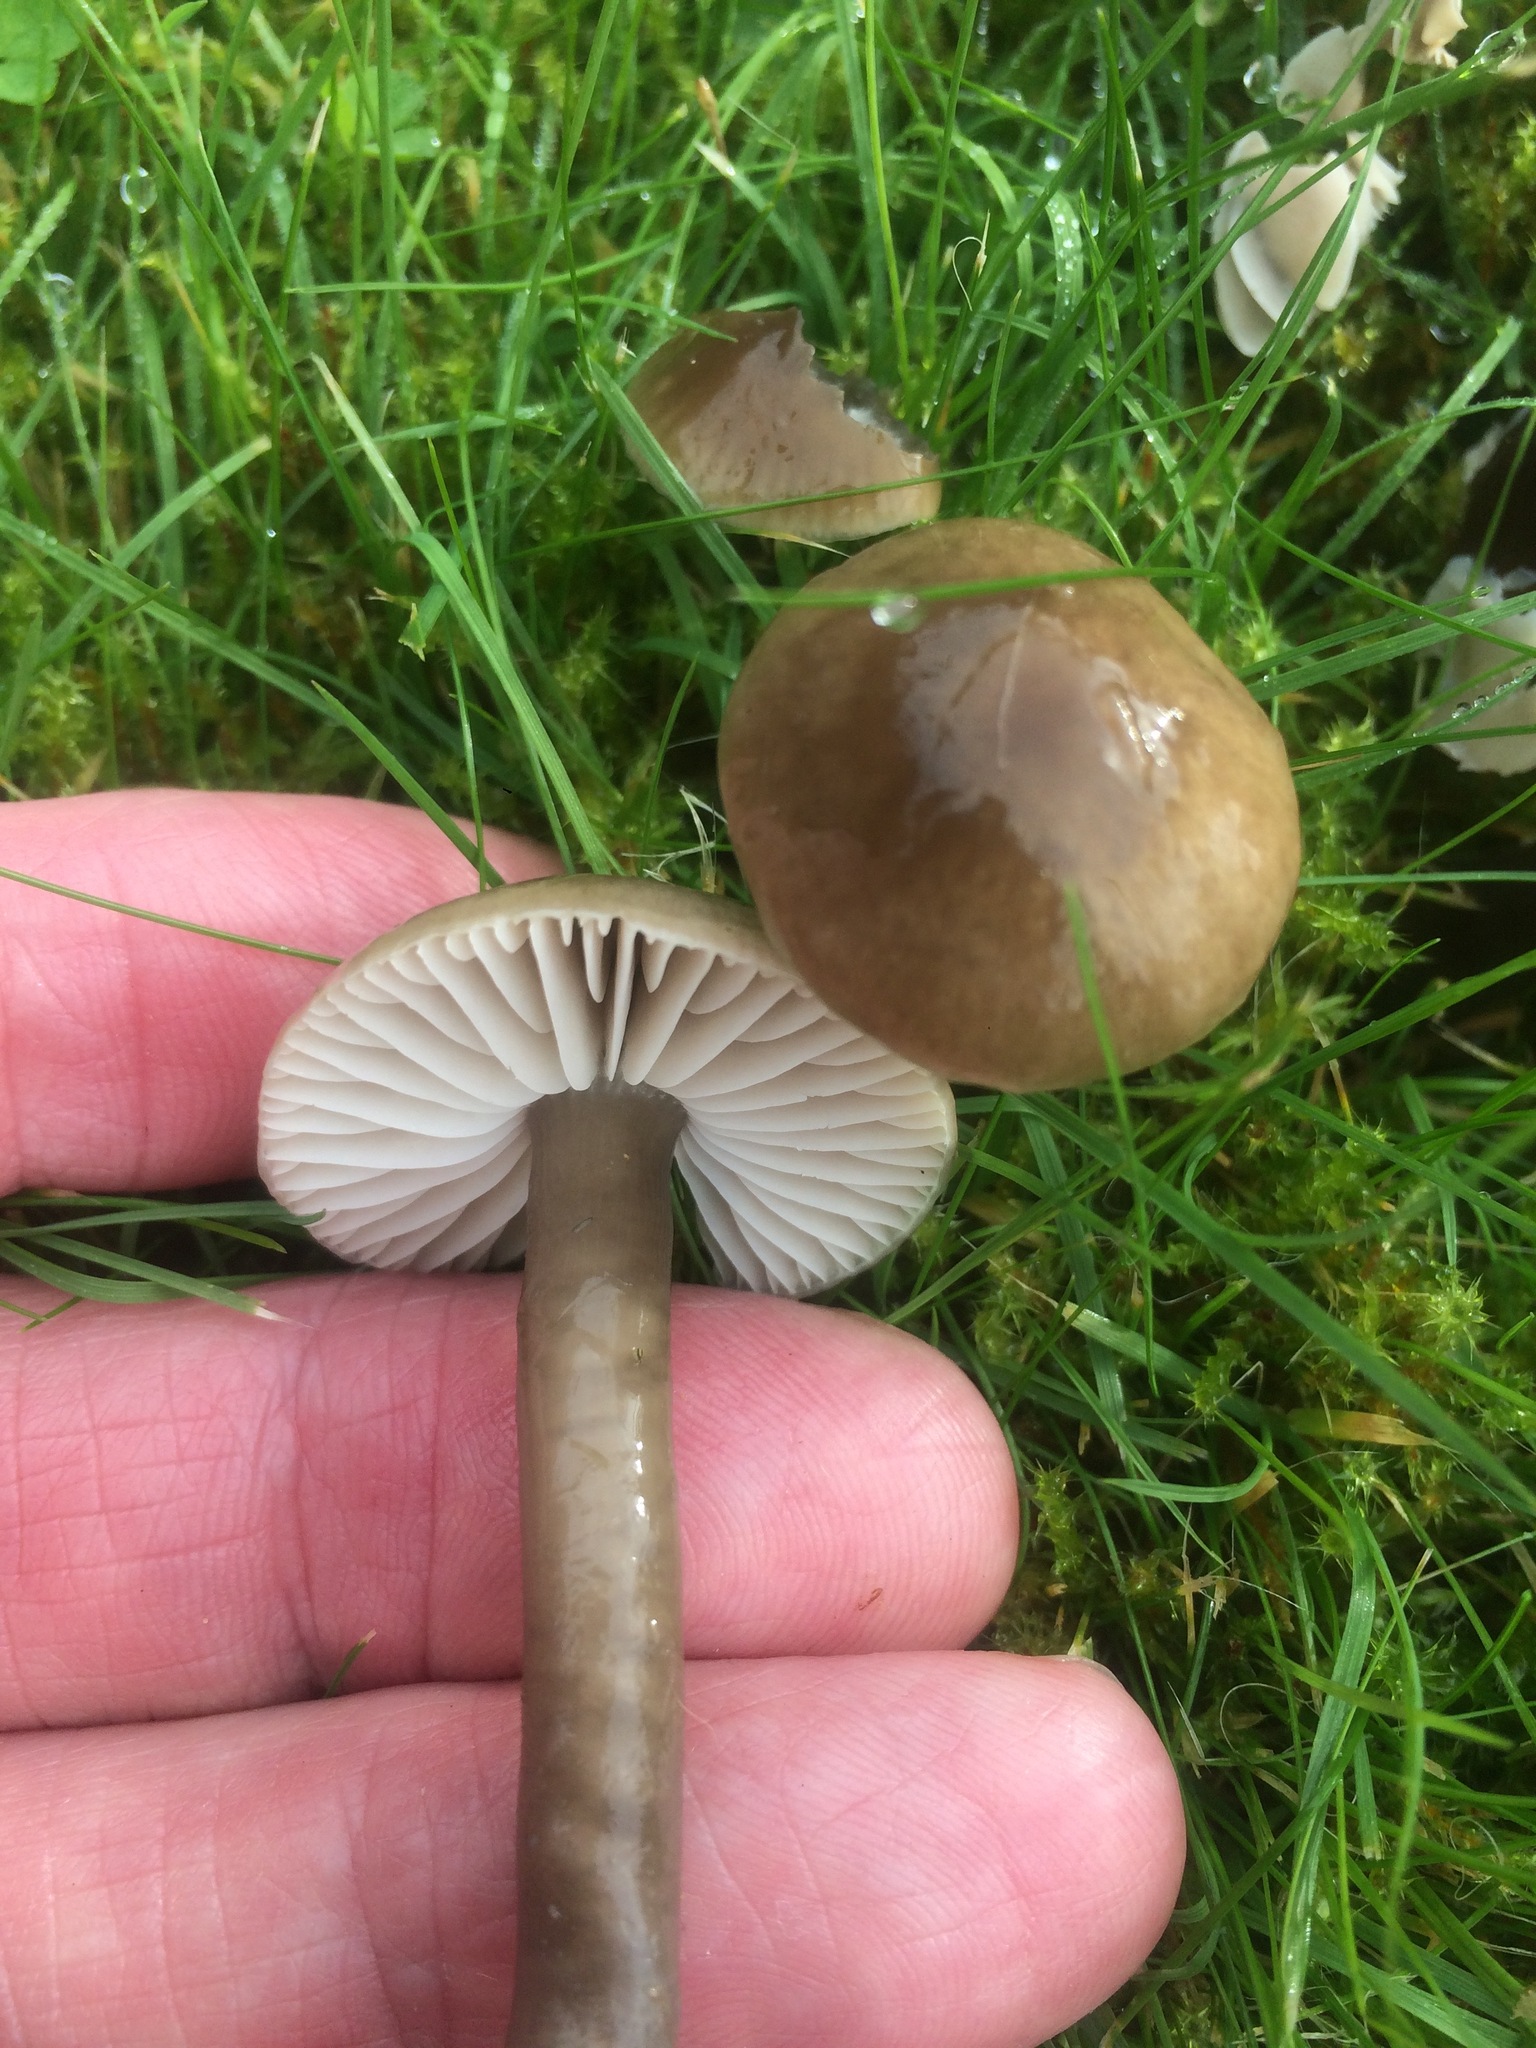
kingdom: Fungi
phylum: Basidiomycota
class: Agaricomycetes
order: Agaricales
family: Hygrophoraceae
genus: Gliophorus
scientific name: Gliophorus irrigatus
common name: Slimy waxcap
